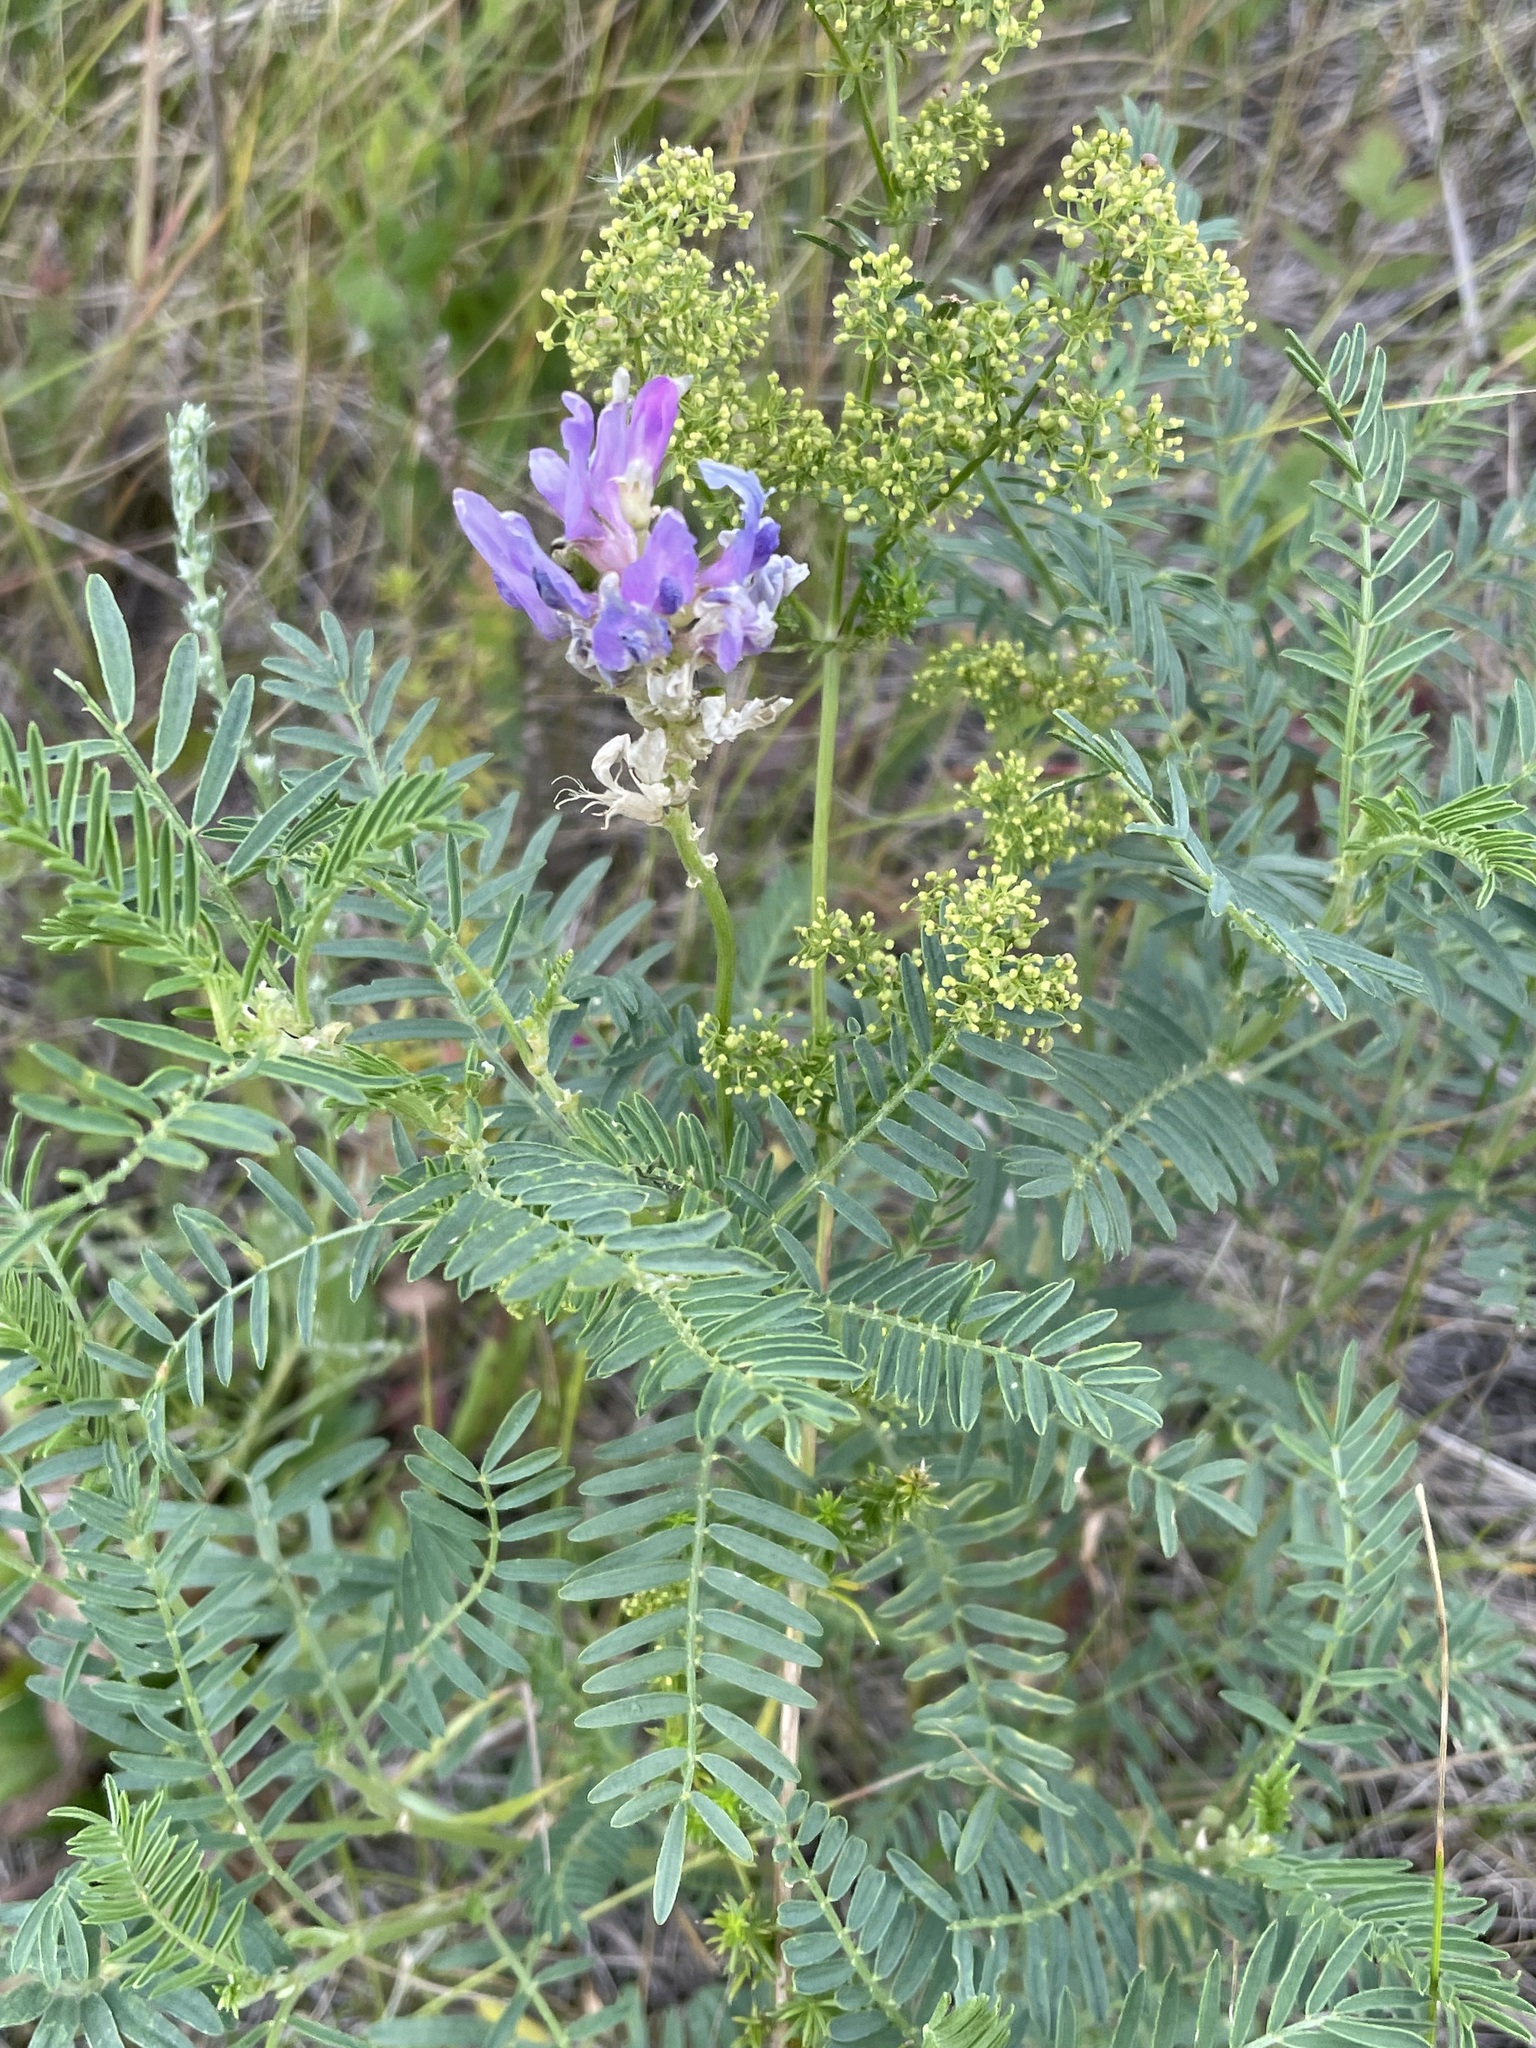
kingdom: Plantae
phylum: Tracheophyta
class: Magnoliopsida
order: Fabales
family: Fabaceae
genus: Astragalus
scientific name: Astragalus onobrychis
